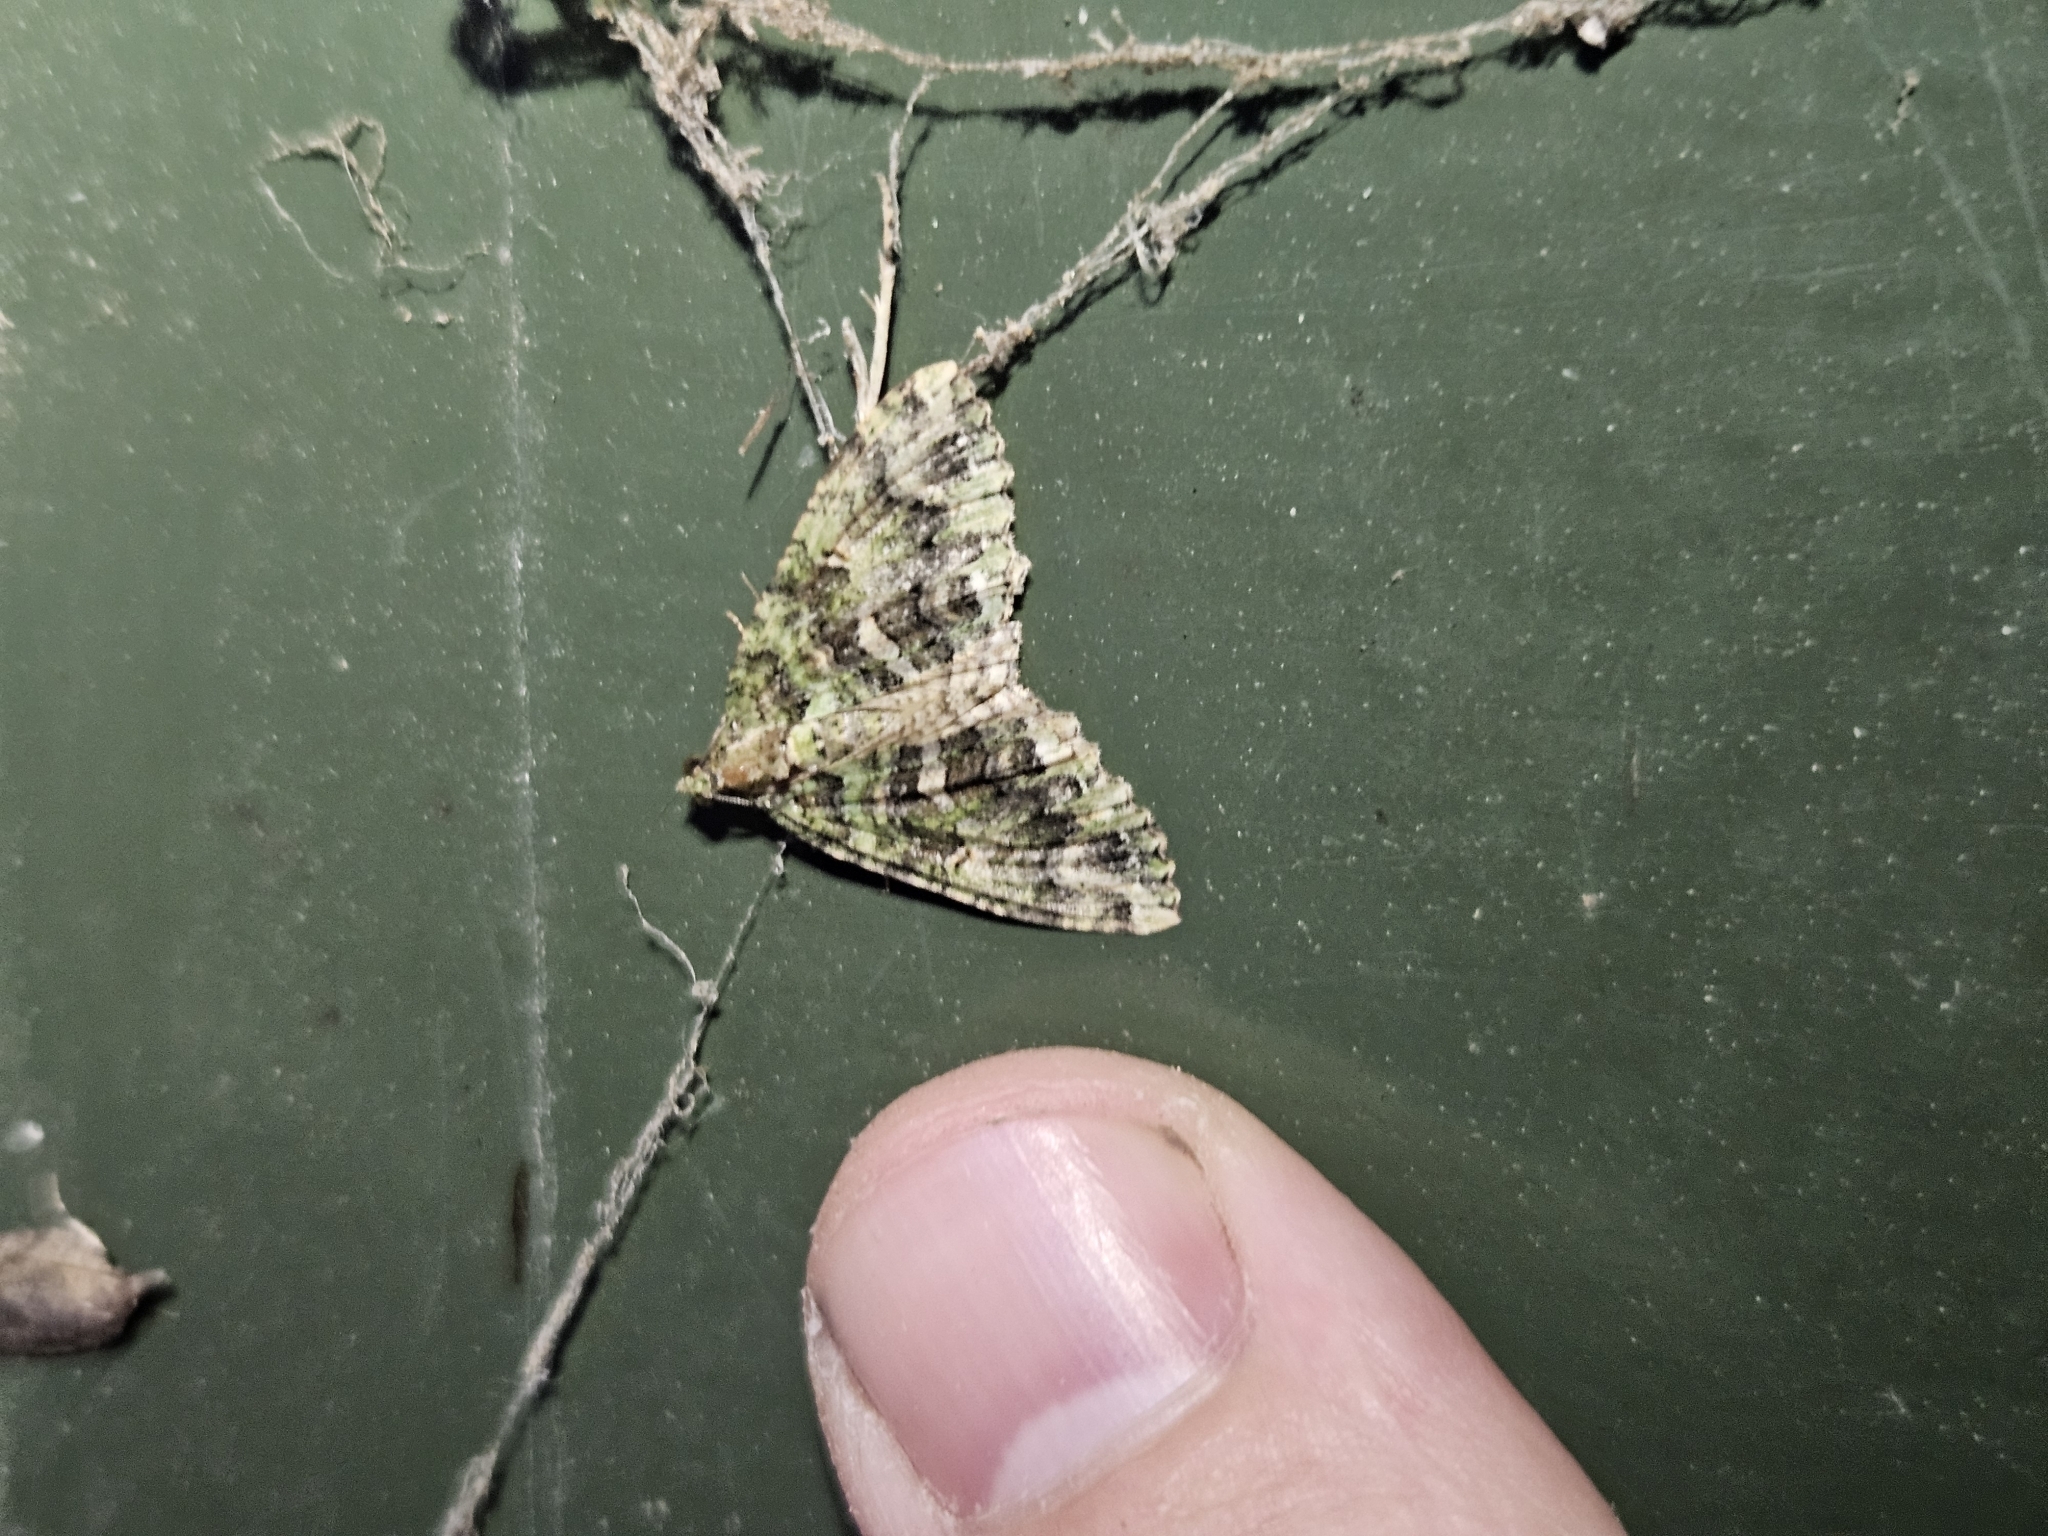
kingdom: Animalia
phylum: Arthropoda
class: Insecta
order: Lepidoptera
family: Geometridae
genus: Austrocidaria
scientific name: Austrocidaria similata
